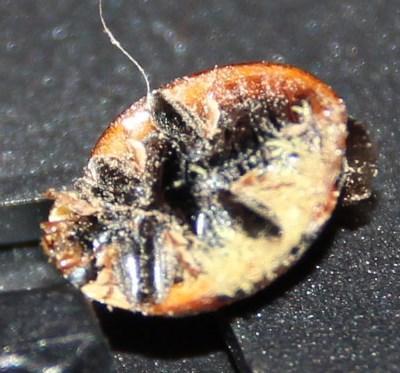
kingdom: Animalia
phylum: Arthropoda
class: Insecta
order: Coleoptera
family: Coccinellidae
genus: Harmonia
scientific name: Harmonia axyridis
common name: Harlequin ladybird
